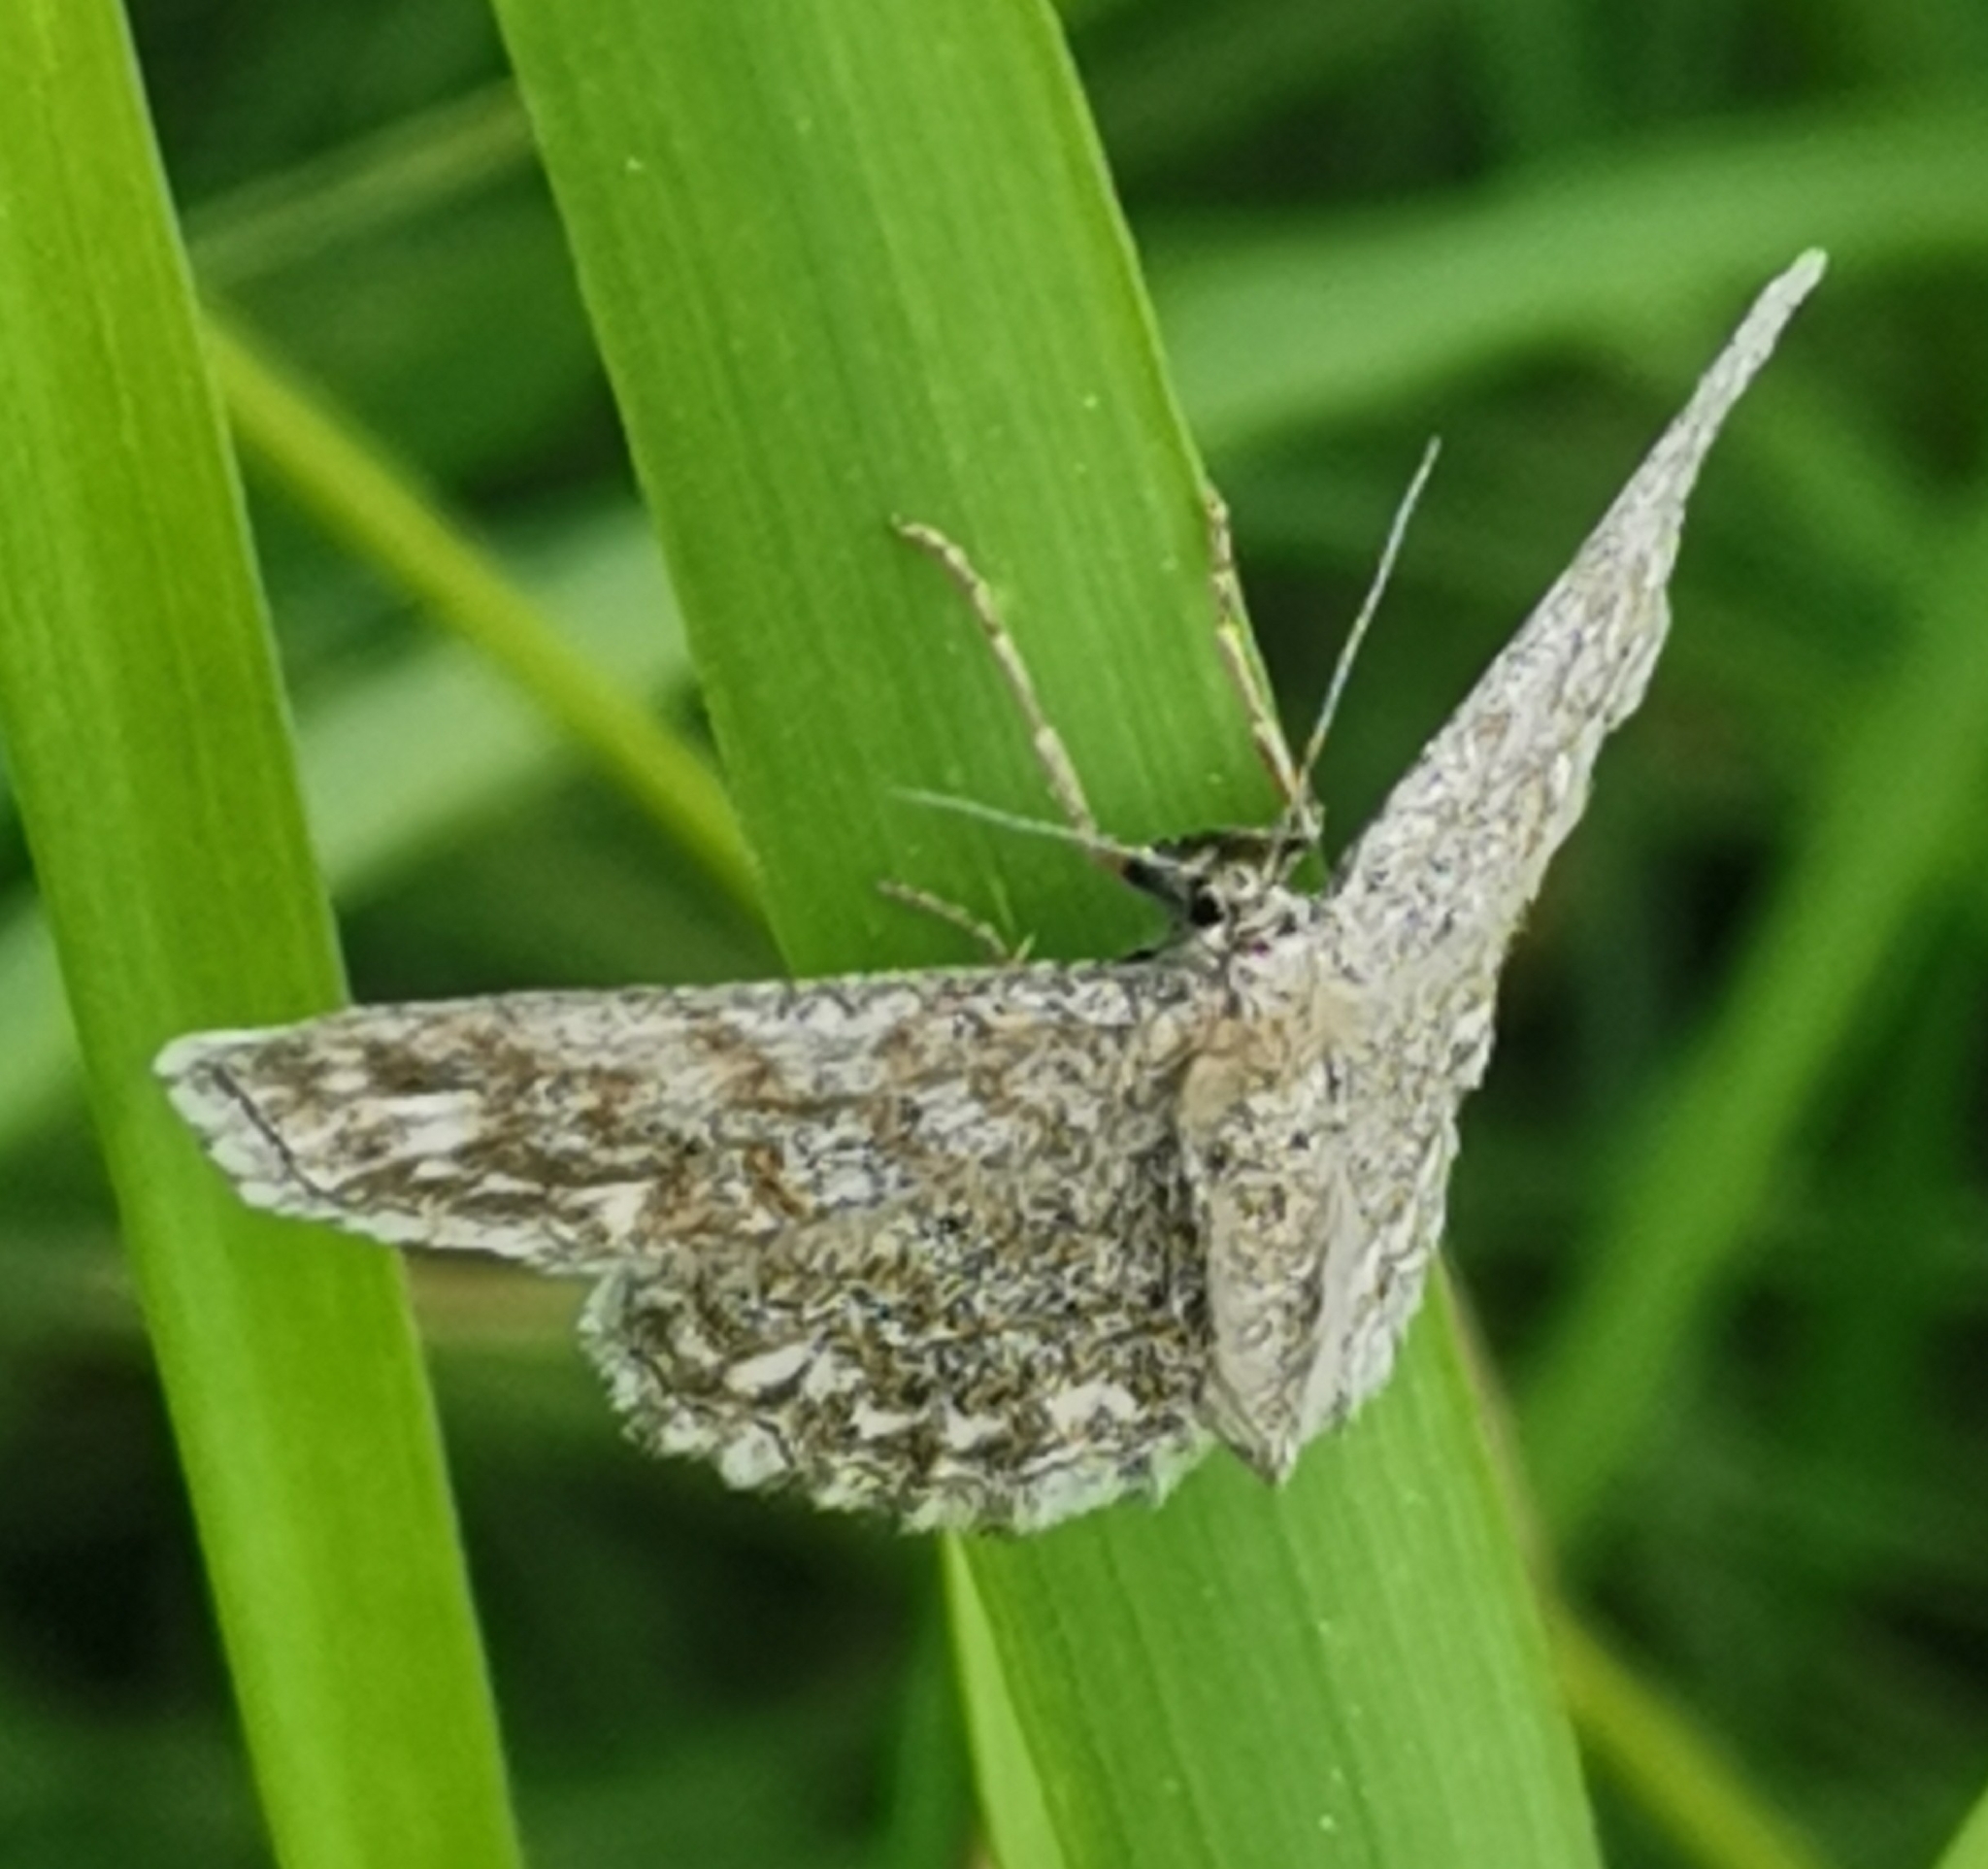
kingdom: Animalia
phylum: Arthropoda
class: Insecta
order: Lepidoptera
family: Geometridae
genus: Scopula
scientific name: Scopula immorata
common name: Lewes wave
